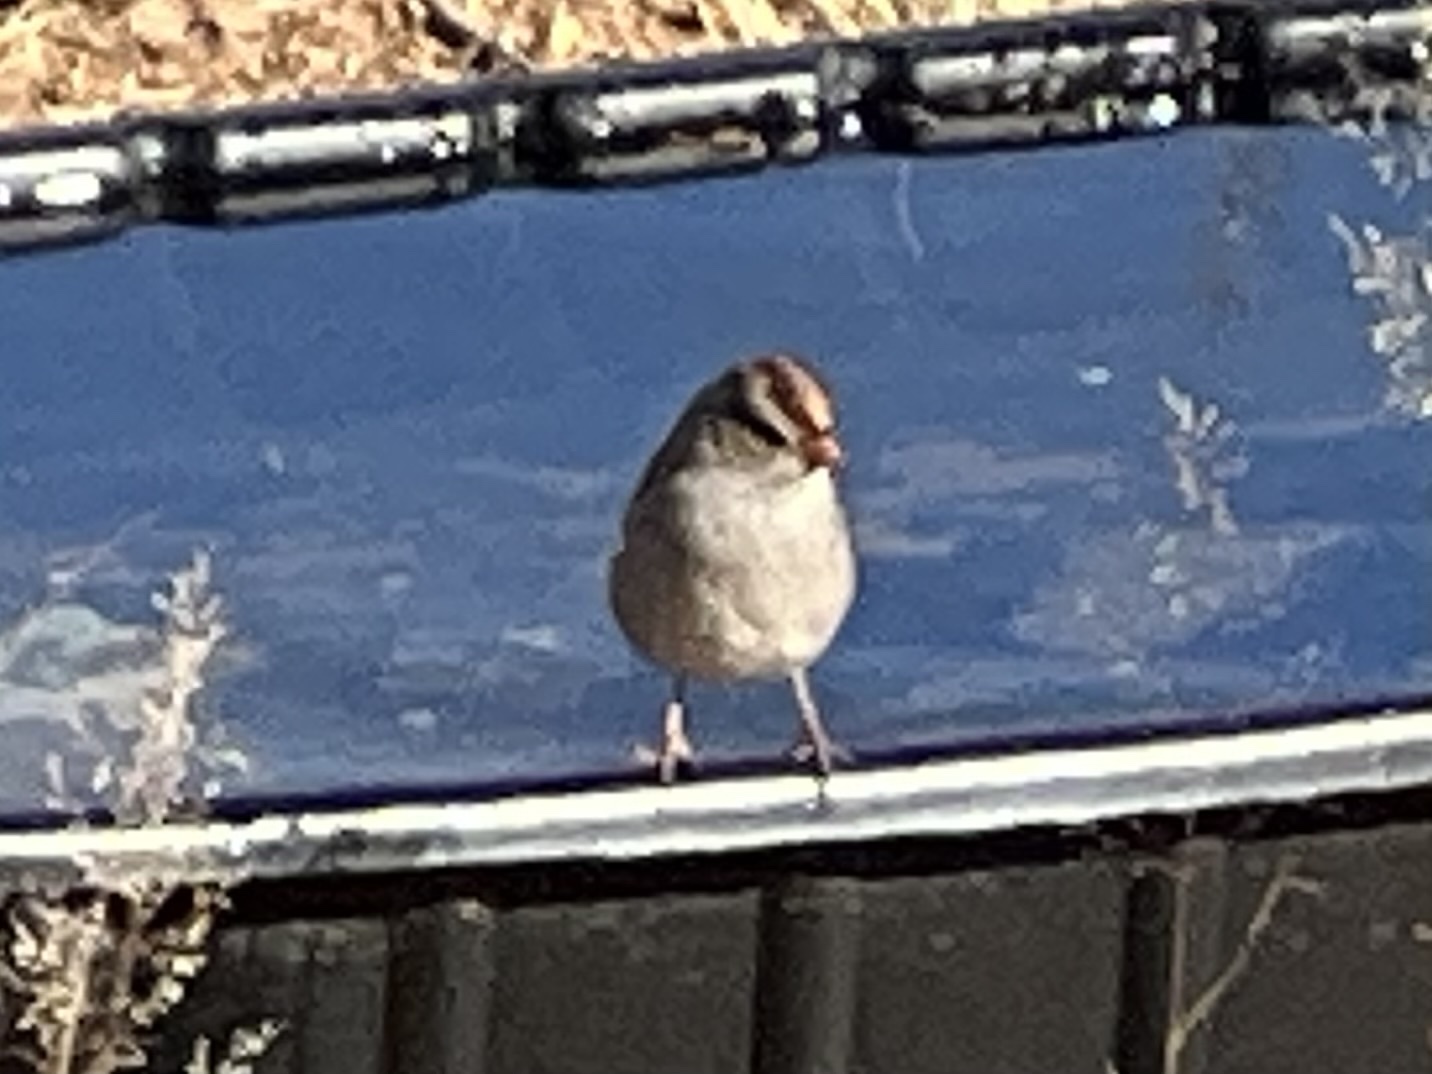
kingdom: Animalia
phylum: Chordata
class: Aves
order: Passeriformes
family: Passerellidae
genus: Zonotrichia
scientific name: Zonotrichia leucophrys
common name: White-crowned sparrow
